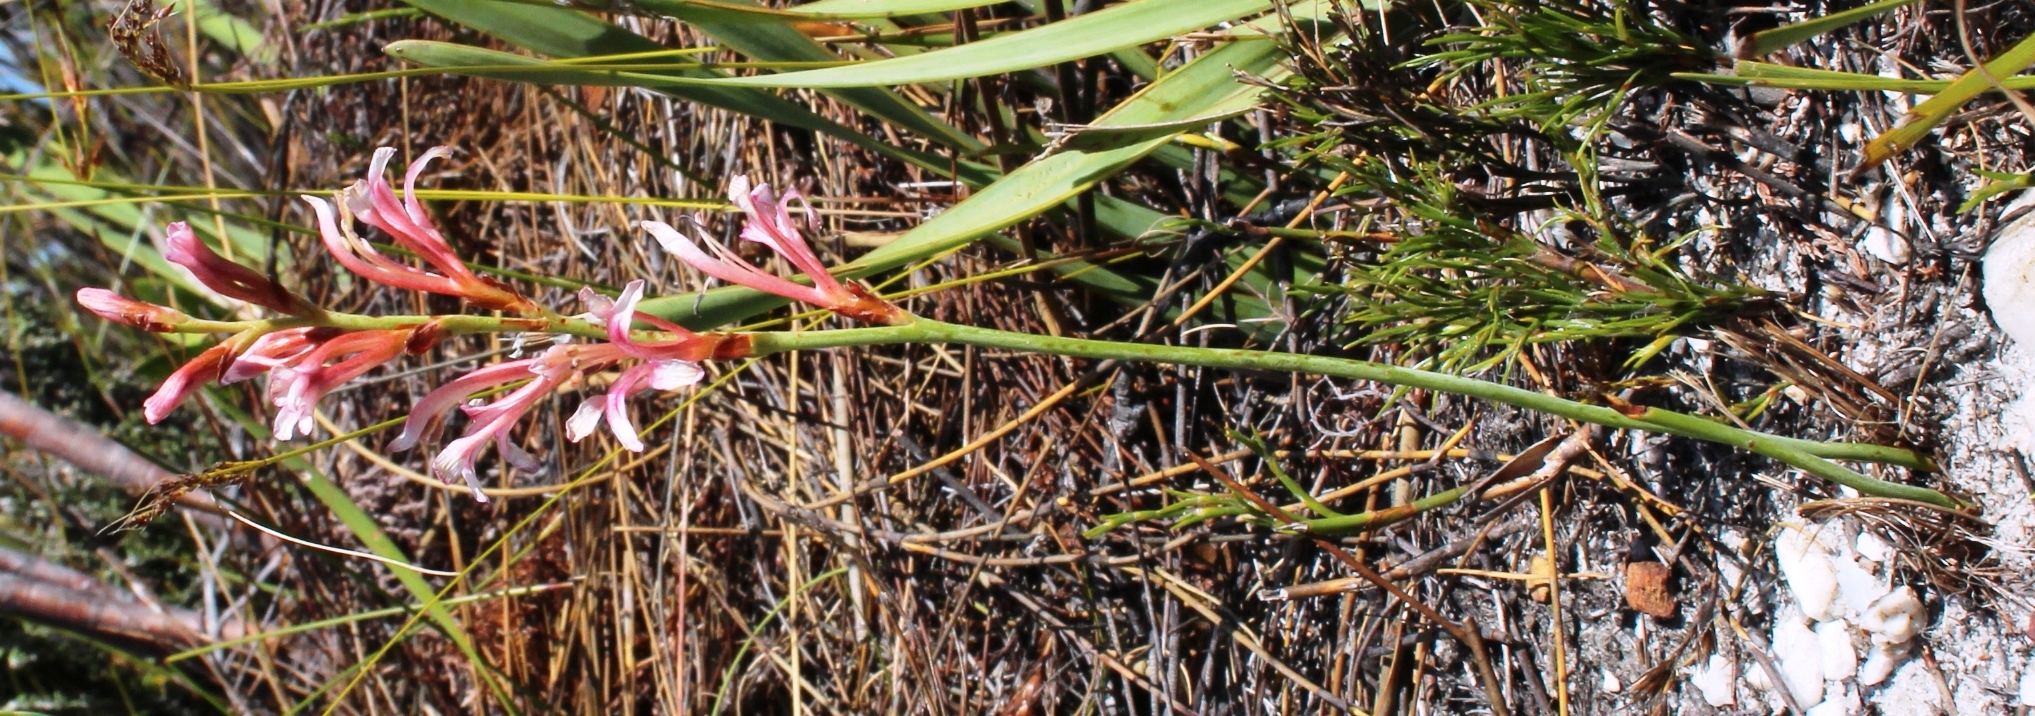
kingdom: Plantae
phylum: Tracheophyta
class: Liliopsida
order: Asparagales
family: Iridaceae
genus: Tritoniopsis
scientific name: Tritoniopsis dodii
